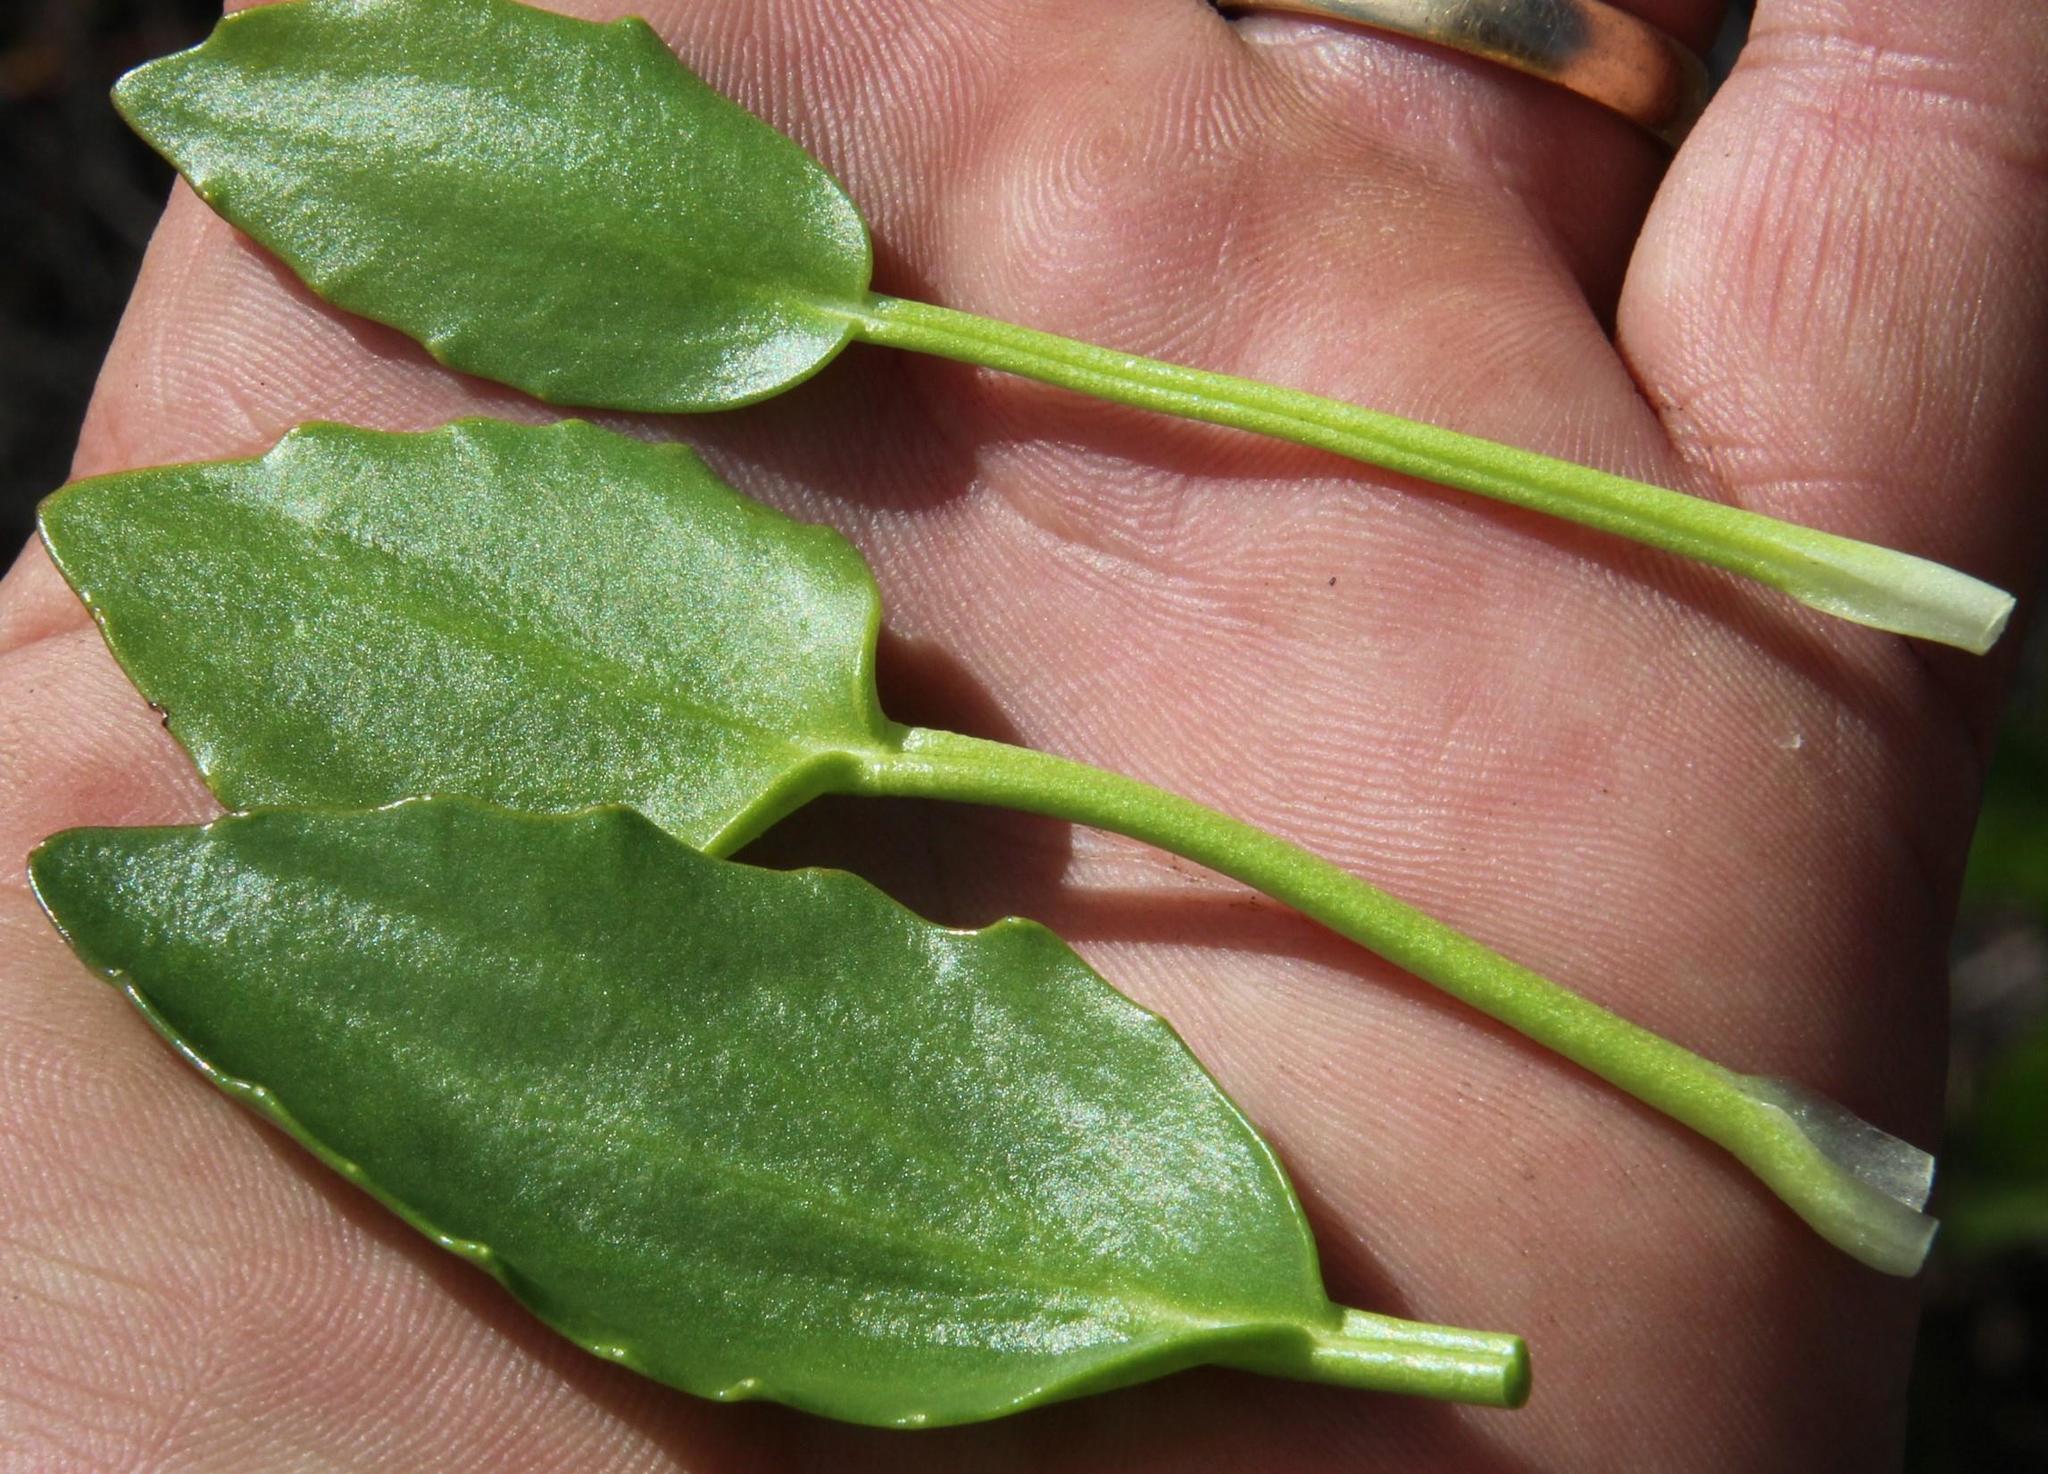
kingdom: Plantae
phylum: Tracheophyta
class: Magnoliopsida
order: Asterales
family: Menyanthaceae
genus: Villarsia
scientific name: Villarsia manningiana
